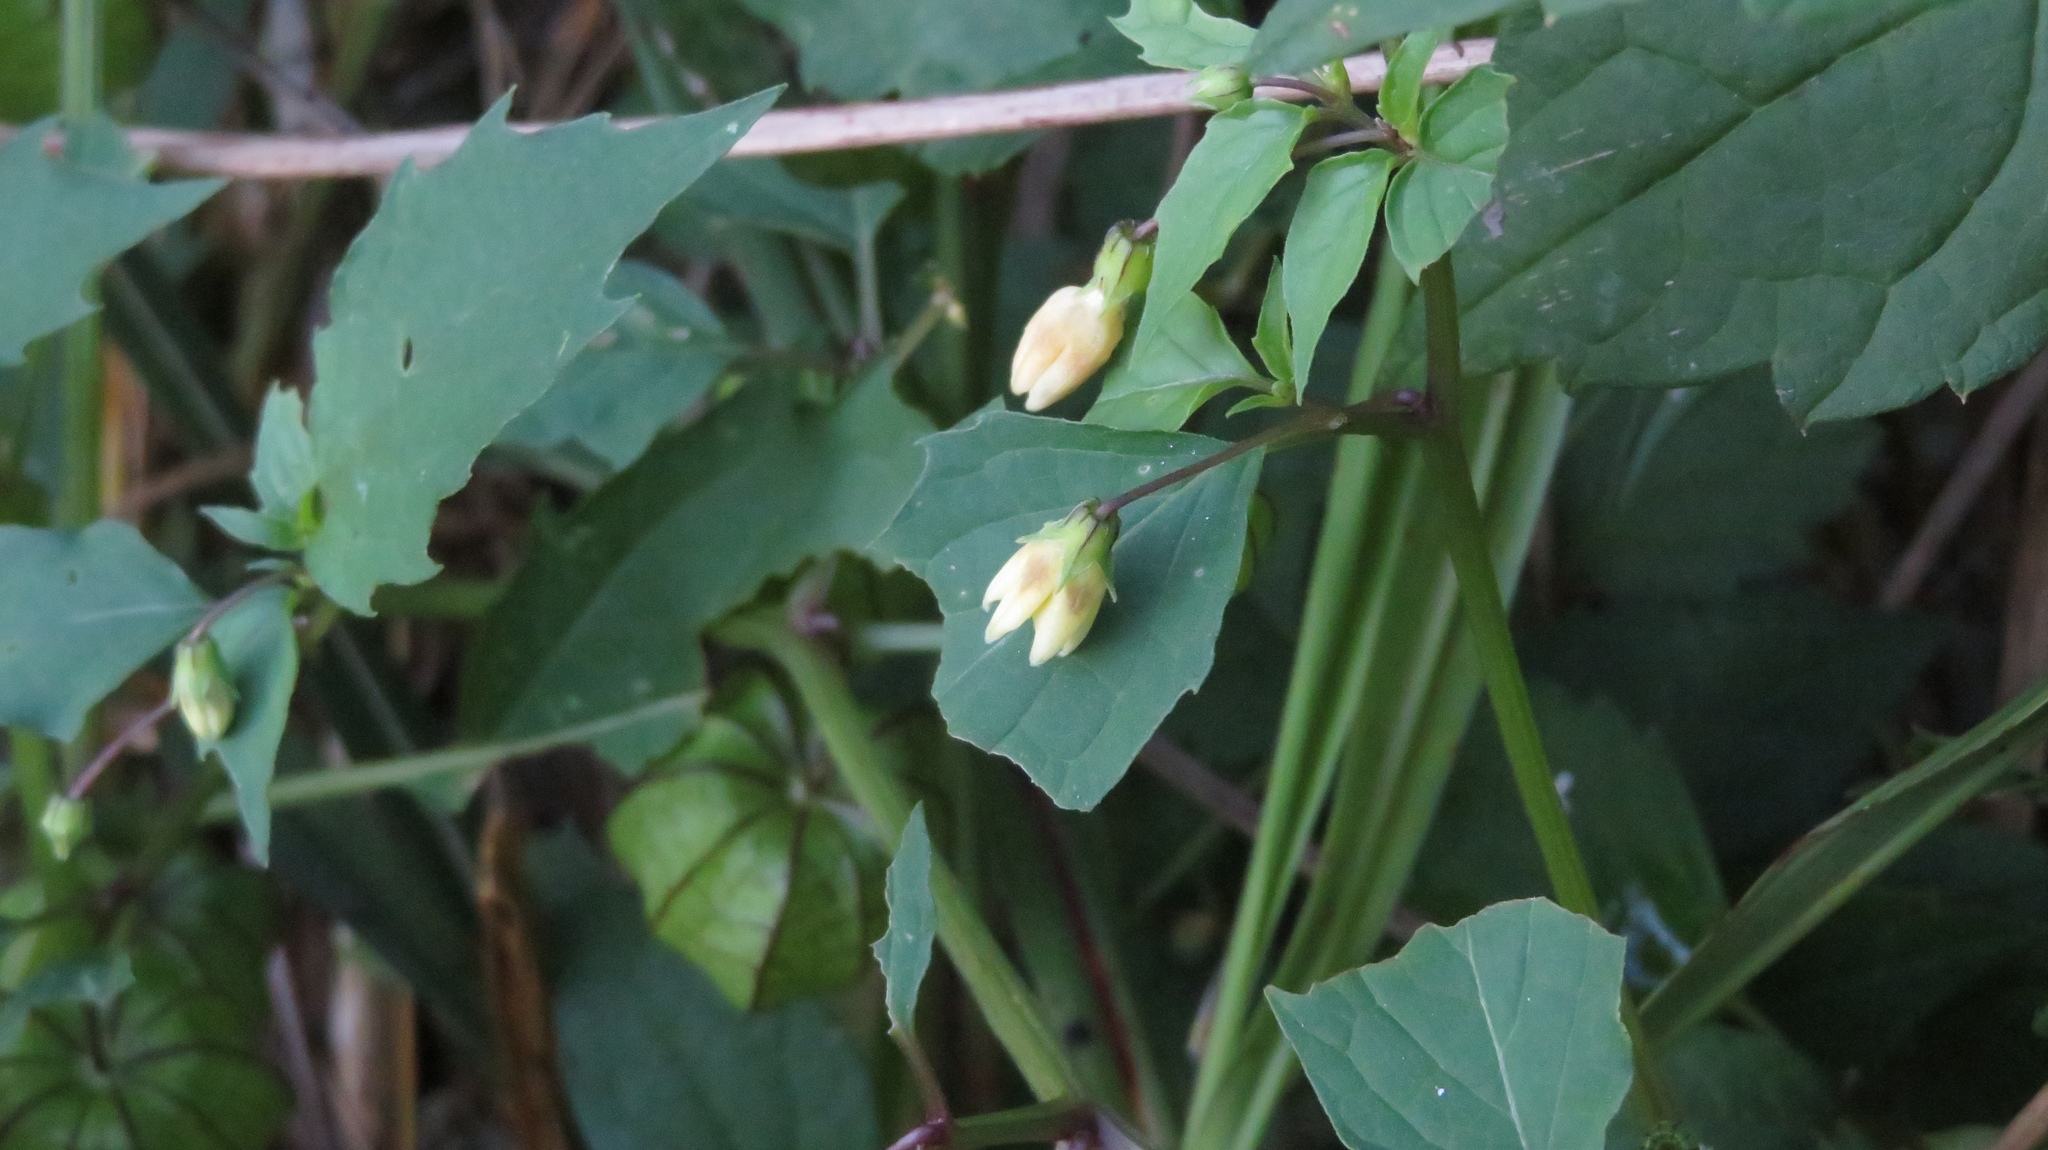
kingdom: Plantae
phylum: Tracheophyta
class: Magnoliopsida
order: Solanales
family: Solanaceae
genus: Physalis
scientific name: Physalis angulata
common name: Angular winter-cherry
